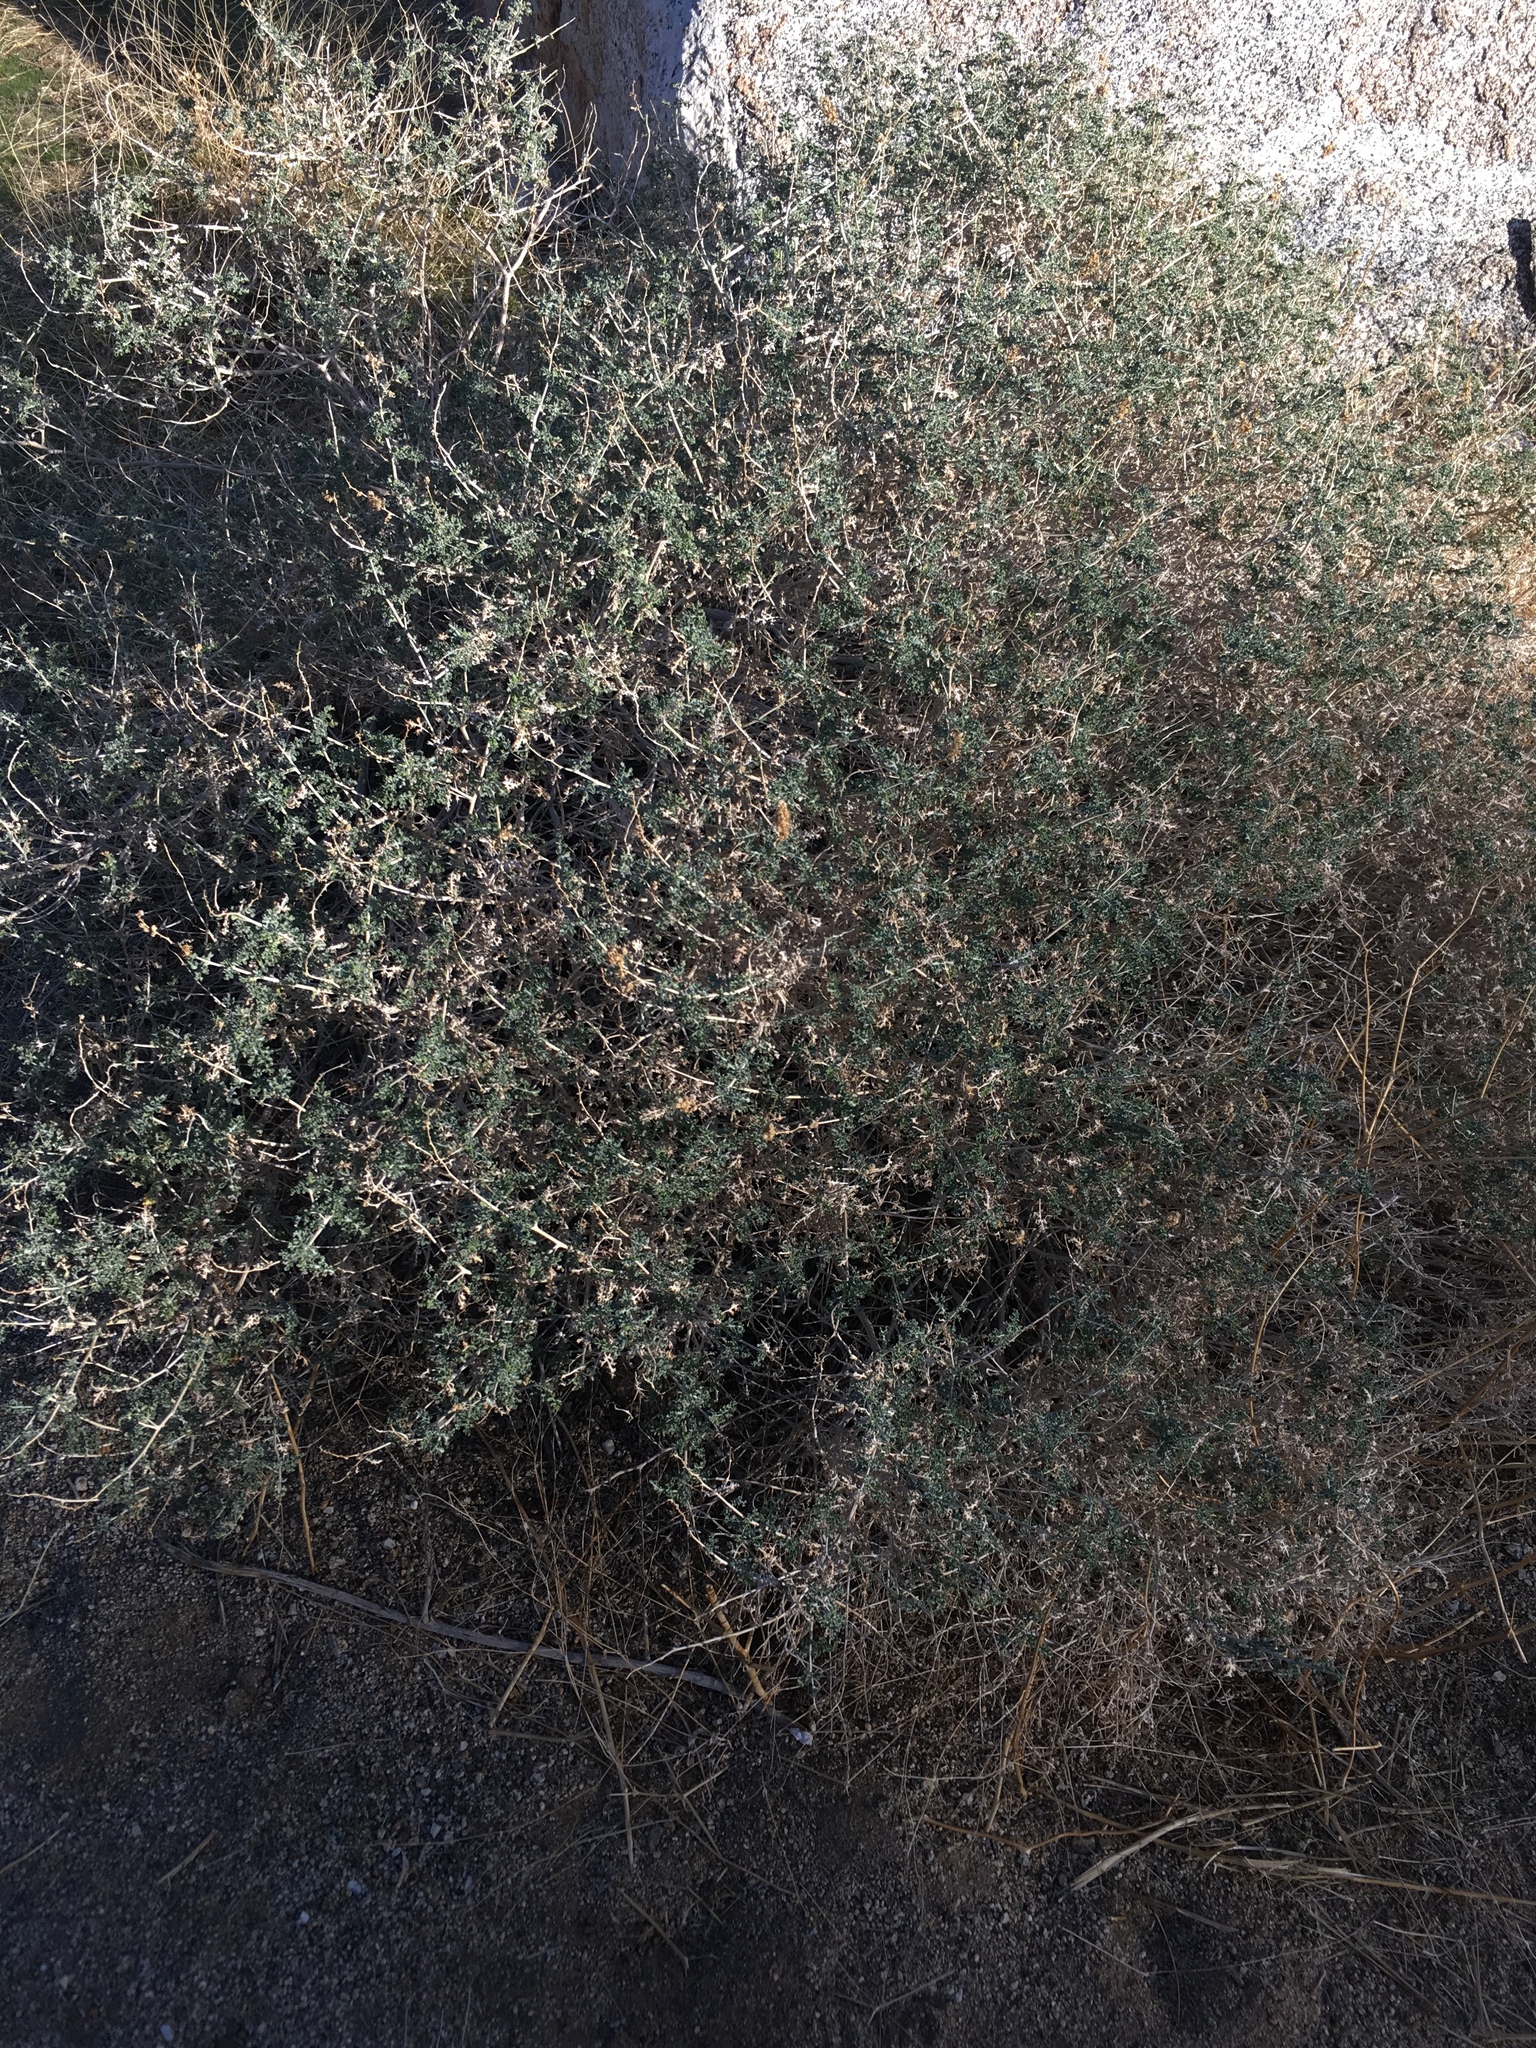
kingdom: Plantae
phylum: Tracheophyta
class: Magnoliopsida
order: Asterales
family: Asteraceae
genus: Ambrosia
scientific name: Ambrosia dumosa
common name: Bur-sage
